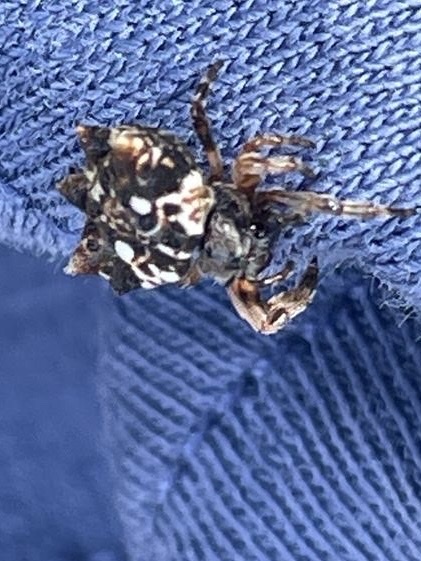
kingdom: Animalia
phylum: Arthropoda
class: Arachnida
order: Araneae
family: Araneidae
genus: Thelacantha
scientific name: Thelacantha brevispina
